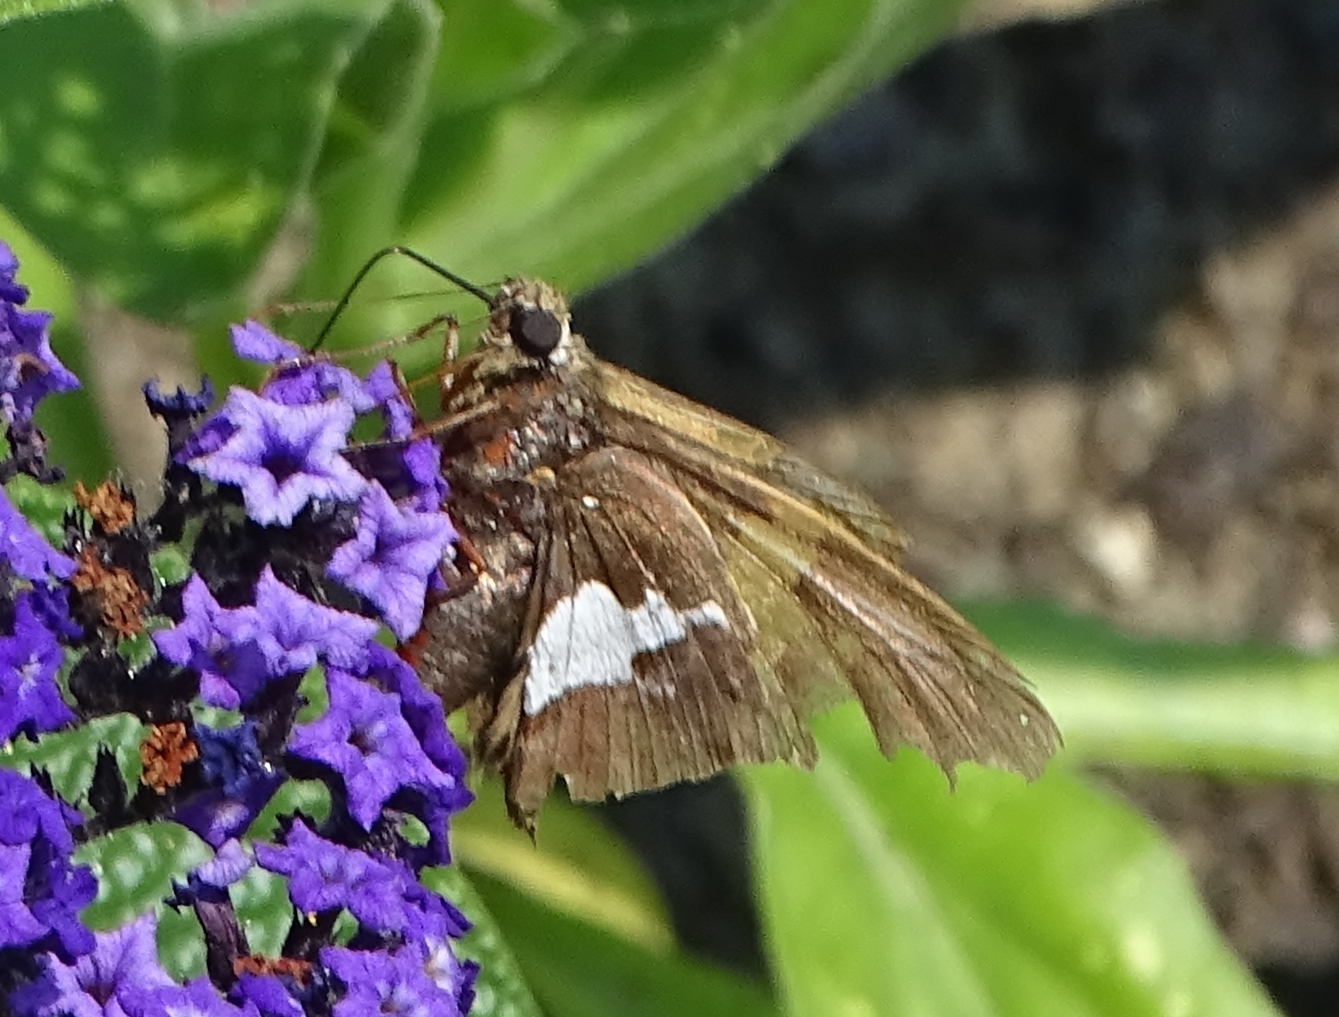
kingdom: Animalia
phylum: Arthropoda
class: Insecta
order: Lepidoptera
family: Hesperiidae
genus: Epargyreus
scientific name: Epargyreus clarus
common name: Silver-spotted skipper
